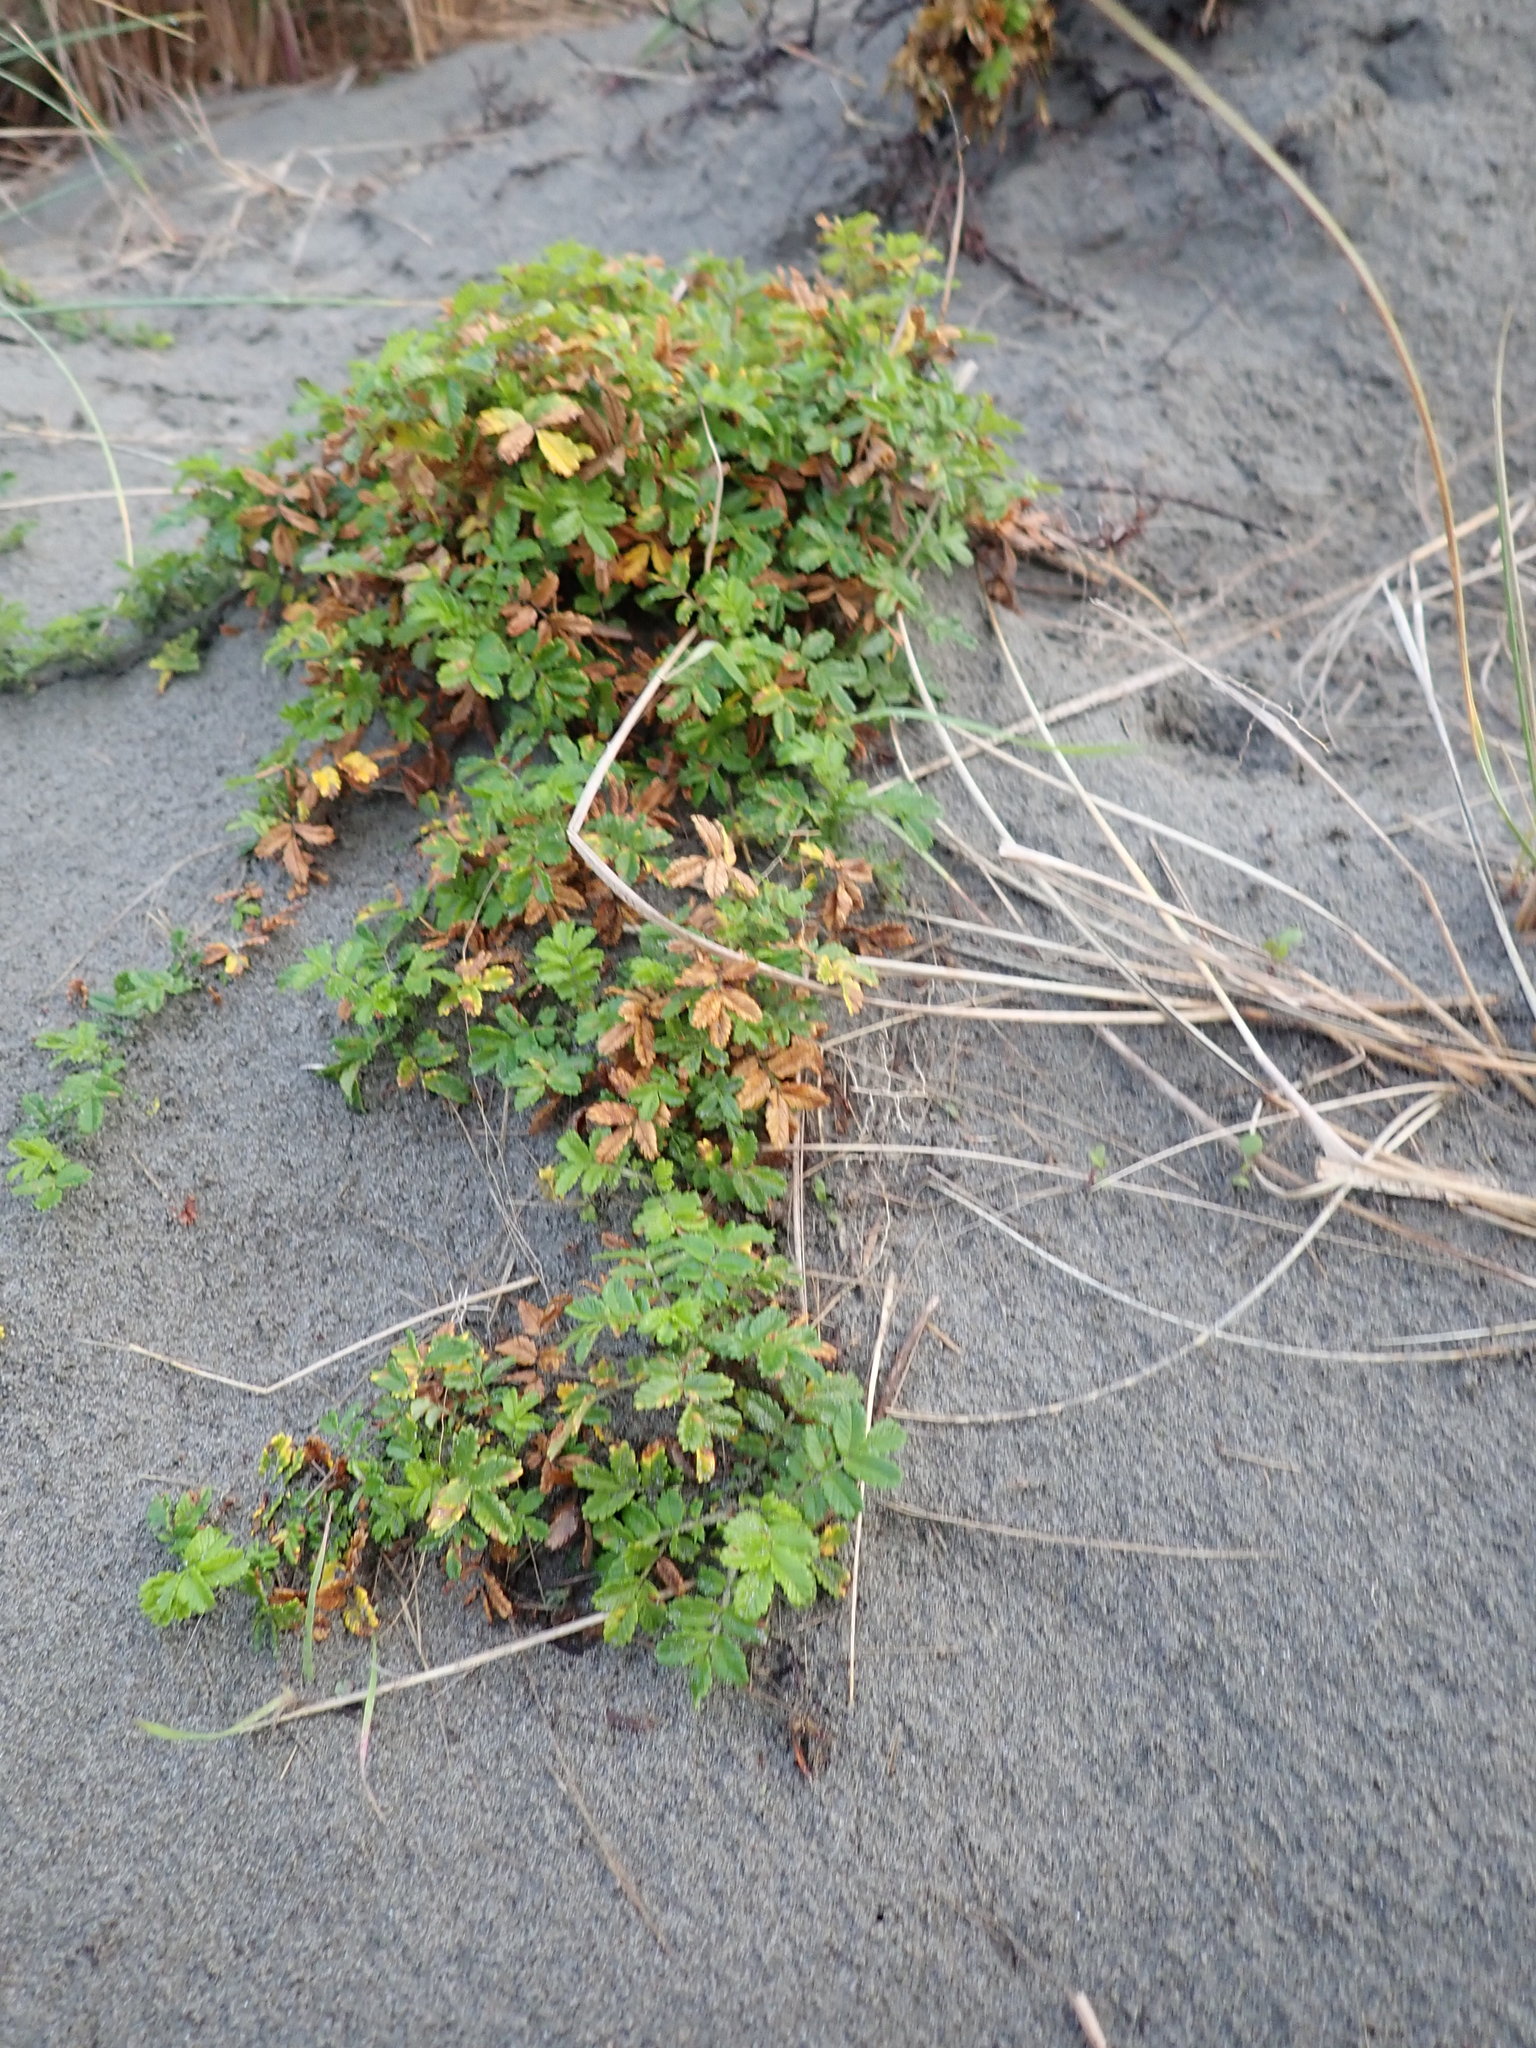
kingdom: Plantae
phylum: Tracheophyta
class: Magnoliopsida
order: Rosales
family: Rosaceae
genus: Acaena
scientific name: Acaena novae-zelandiae
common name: Pirri-pirri-bur
